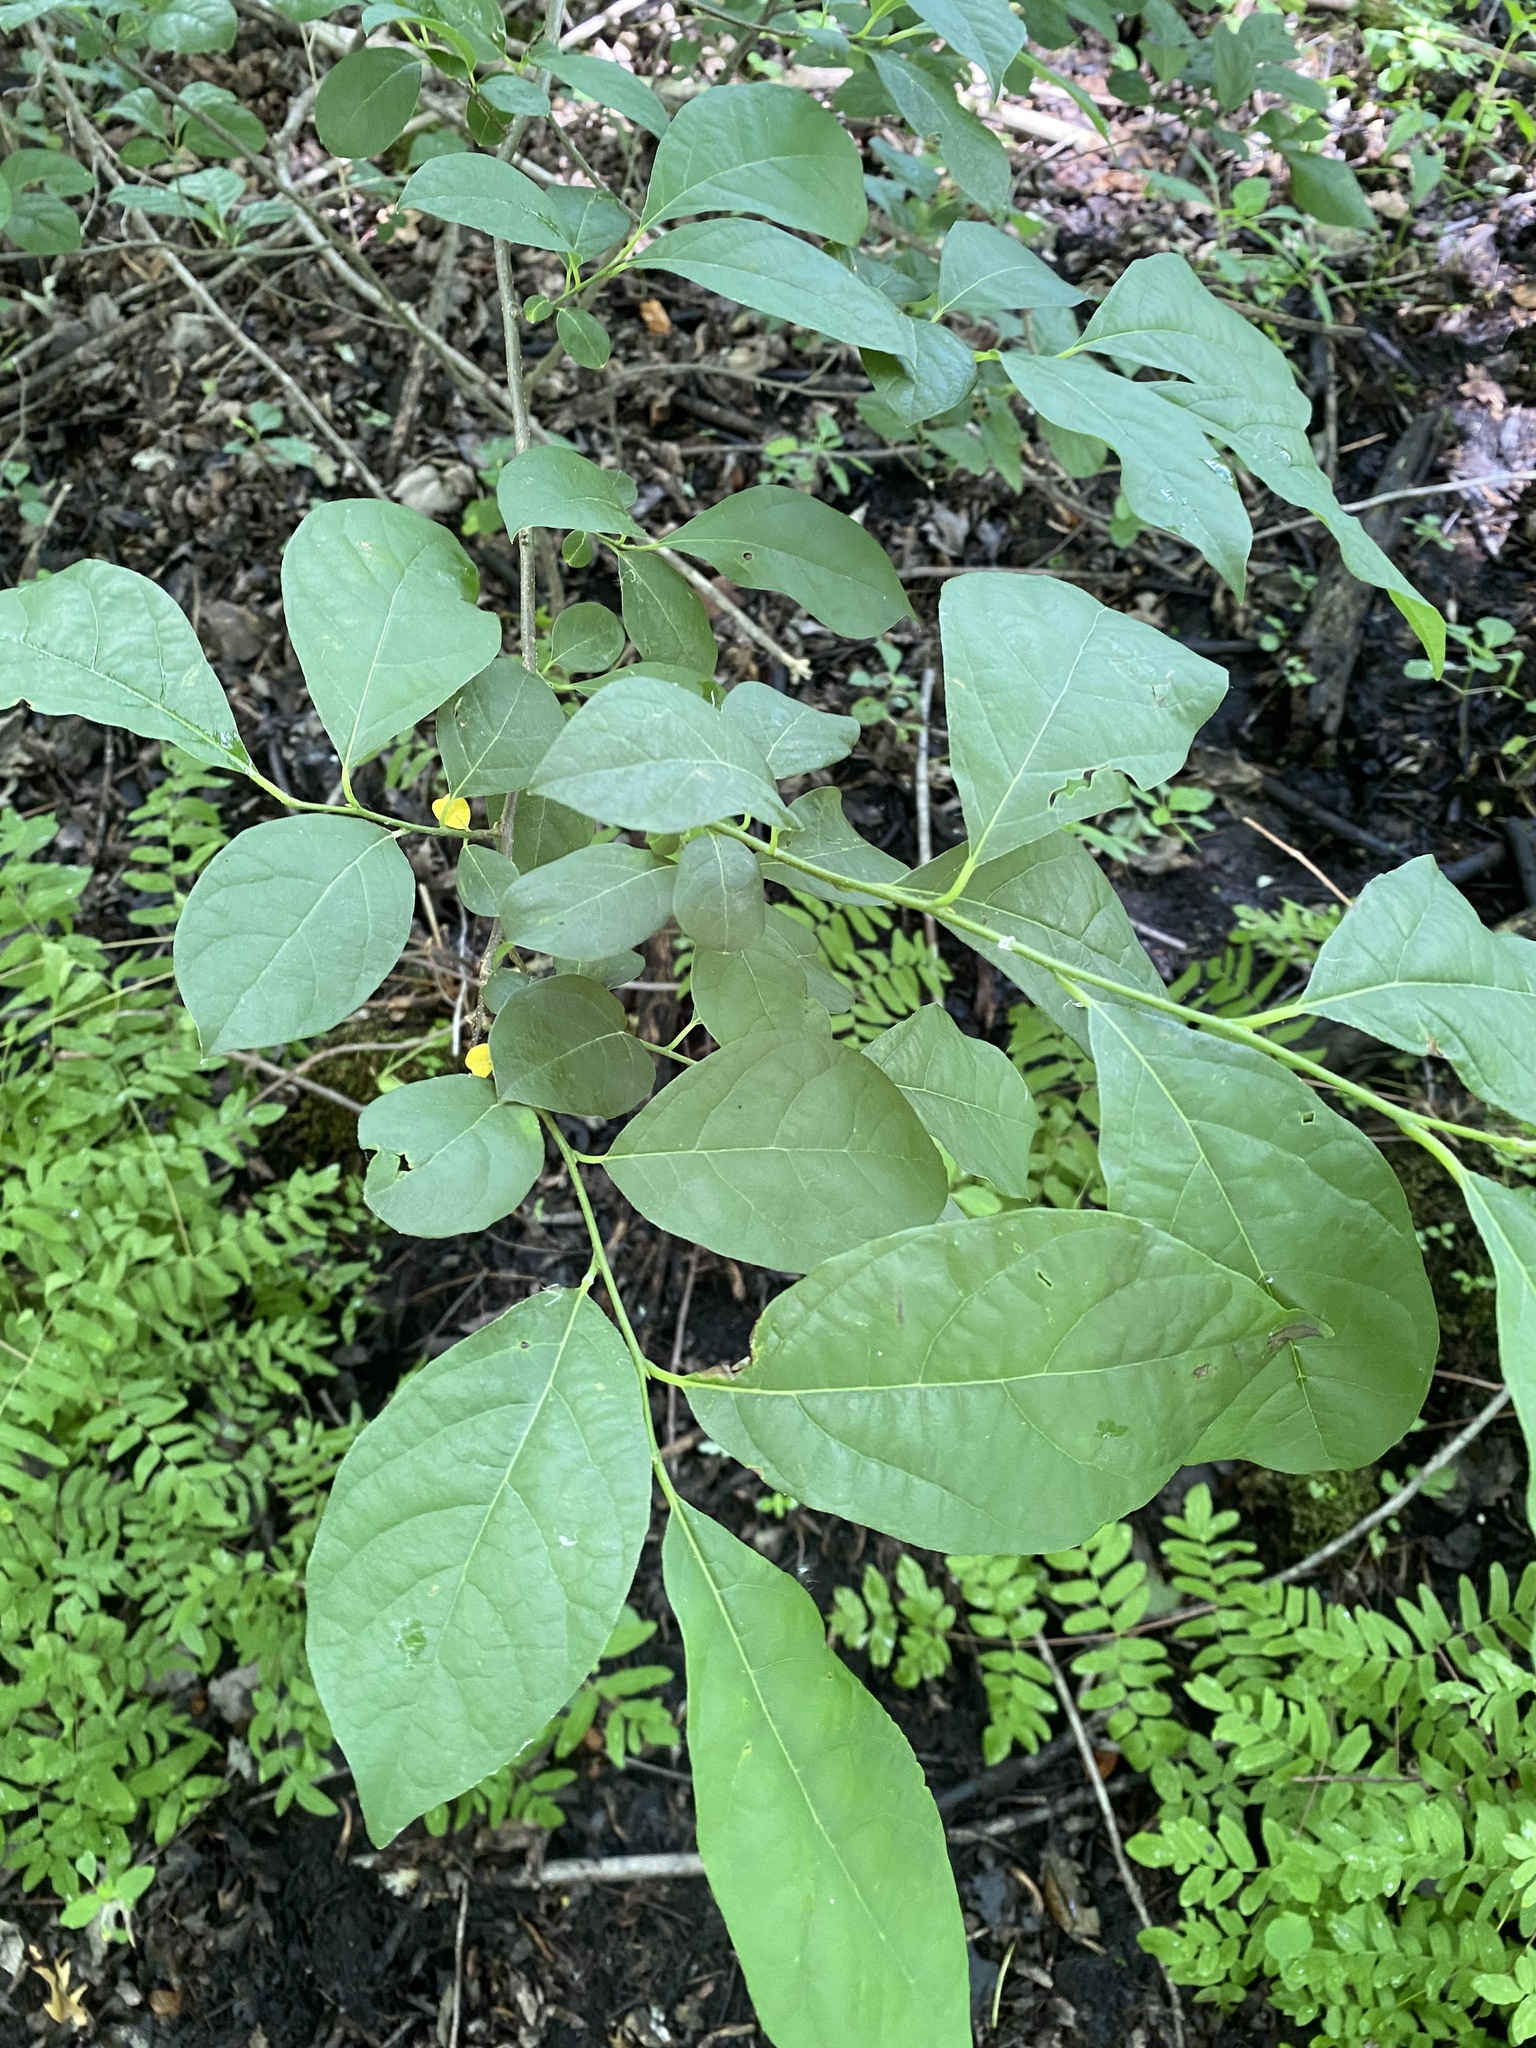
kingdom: Plantae
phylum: Tracheophyta
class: Magnoliopsida
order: Laurales
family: Lauraceae
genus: Lindera
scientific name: Lindera benzoin
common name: Spicebush
